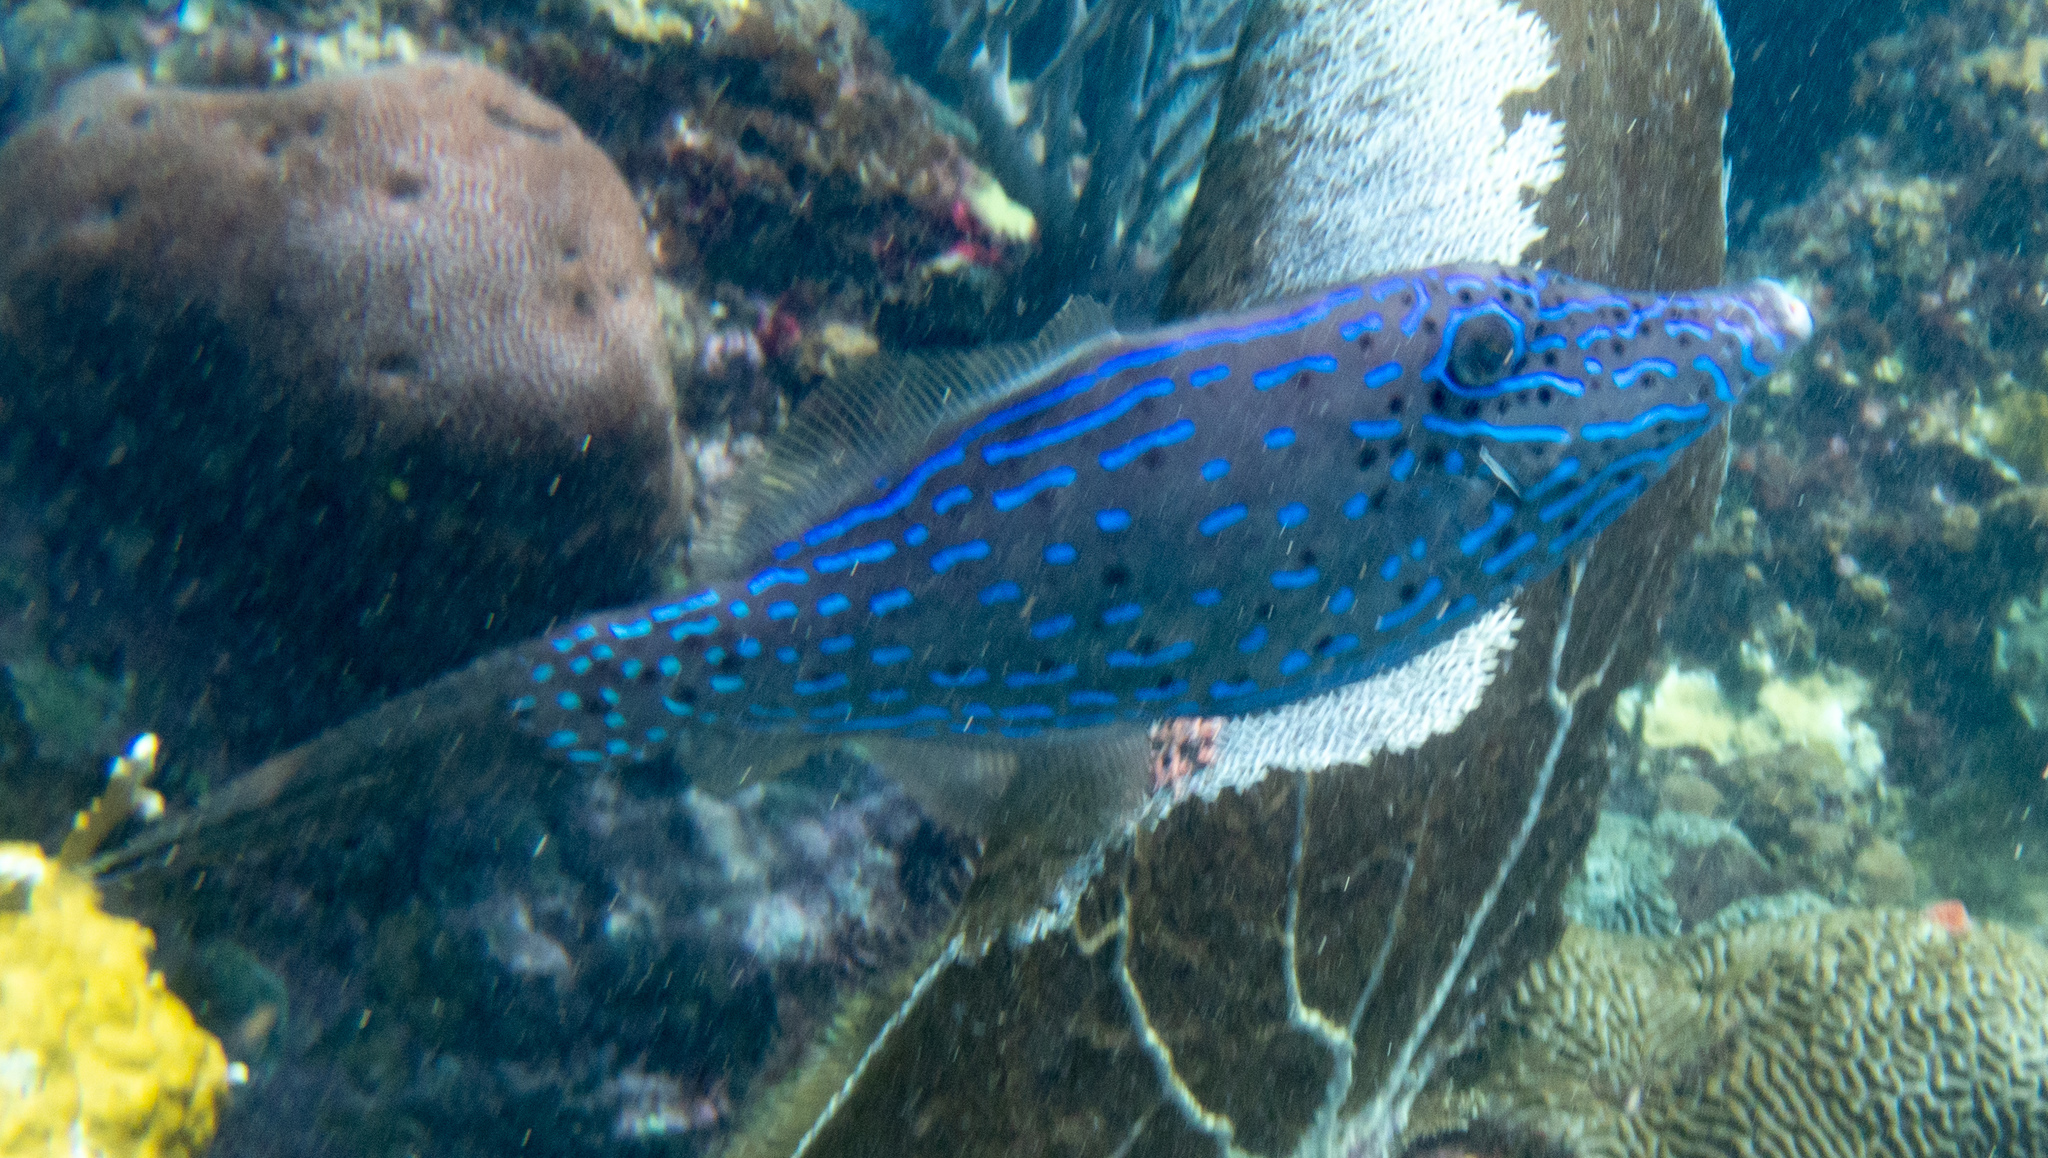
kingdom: Animalia
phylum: Chordata
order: Tetraodontiformes
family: Monacanthidae
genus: Aluterus
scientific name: Aluterus scriptus
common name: Scribbled leatherjacket filefish
